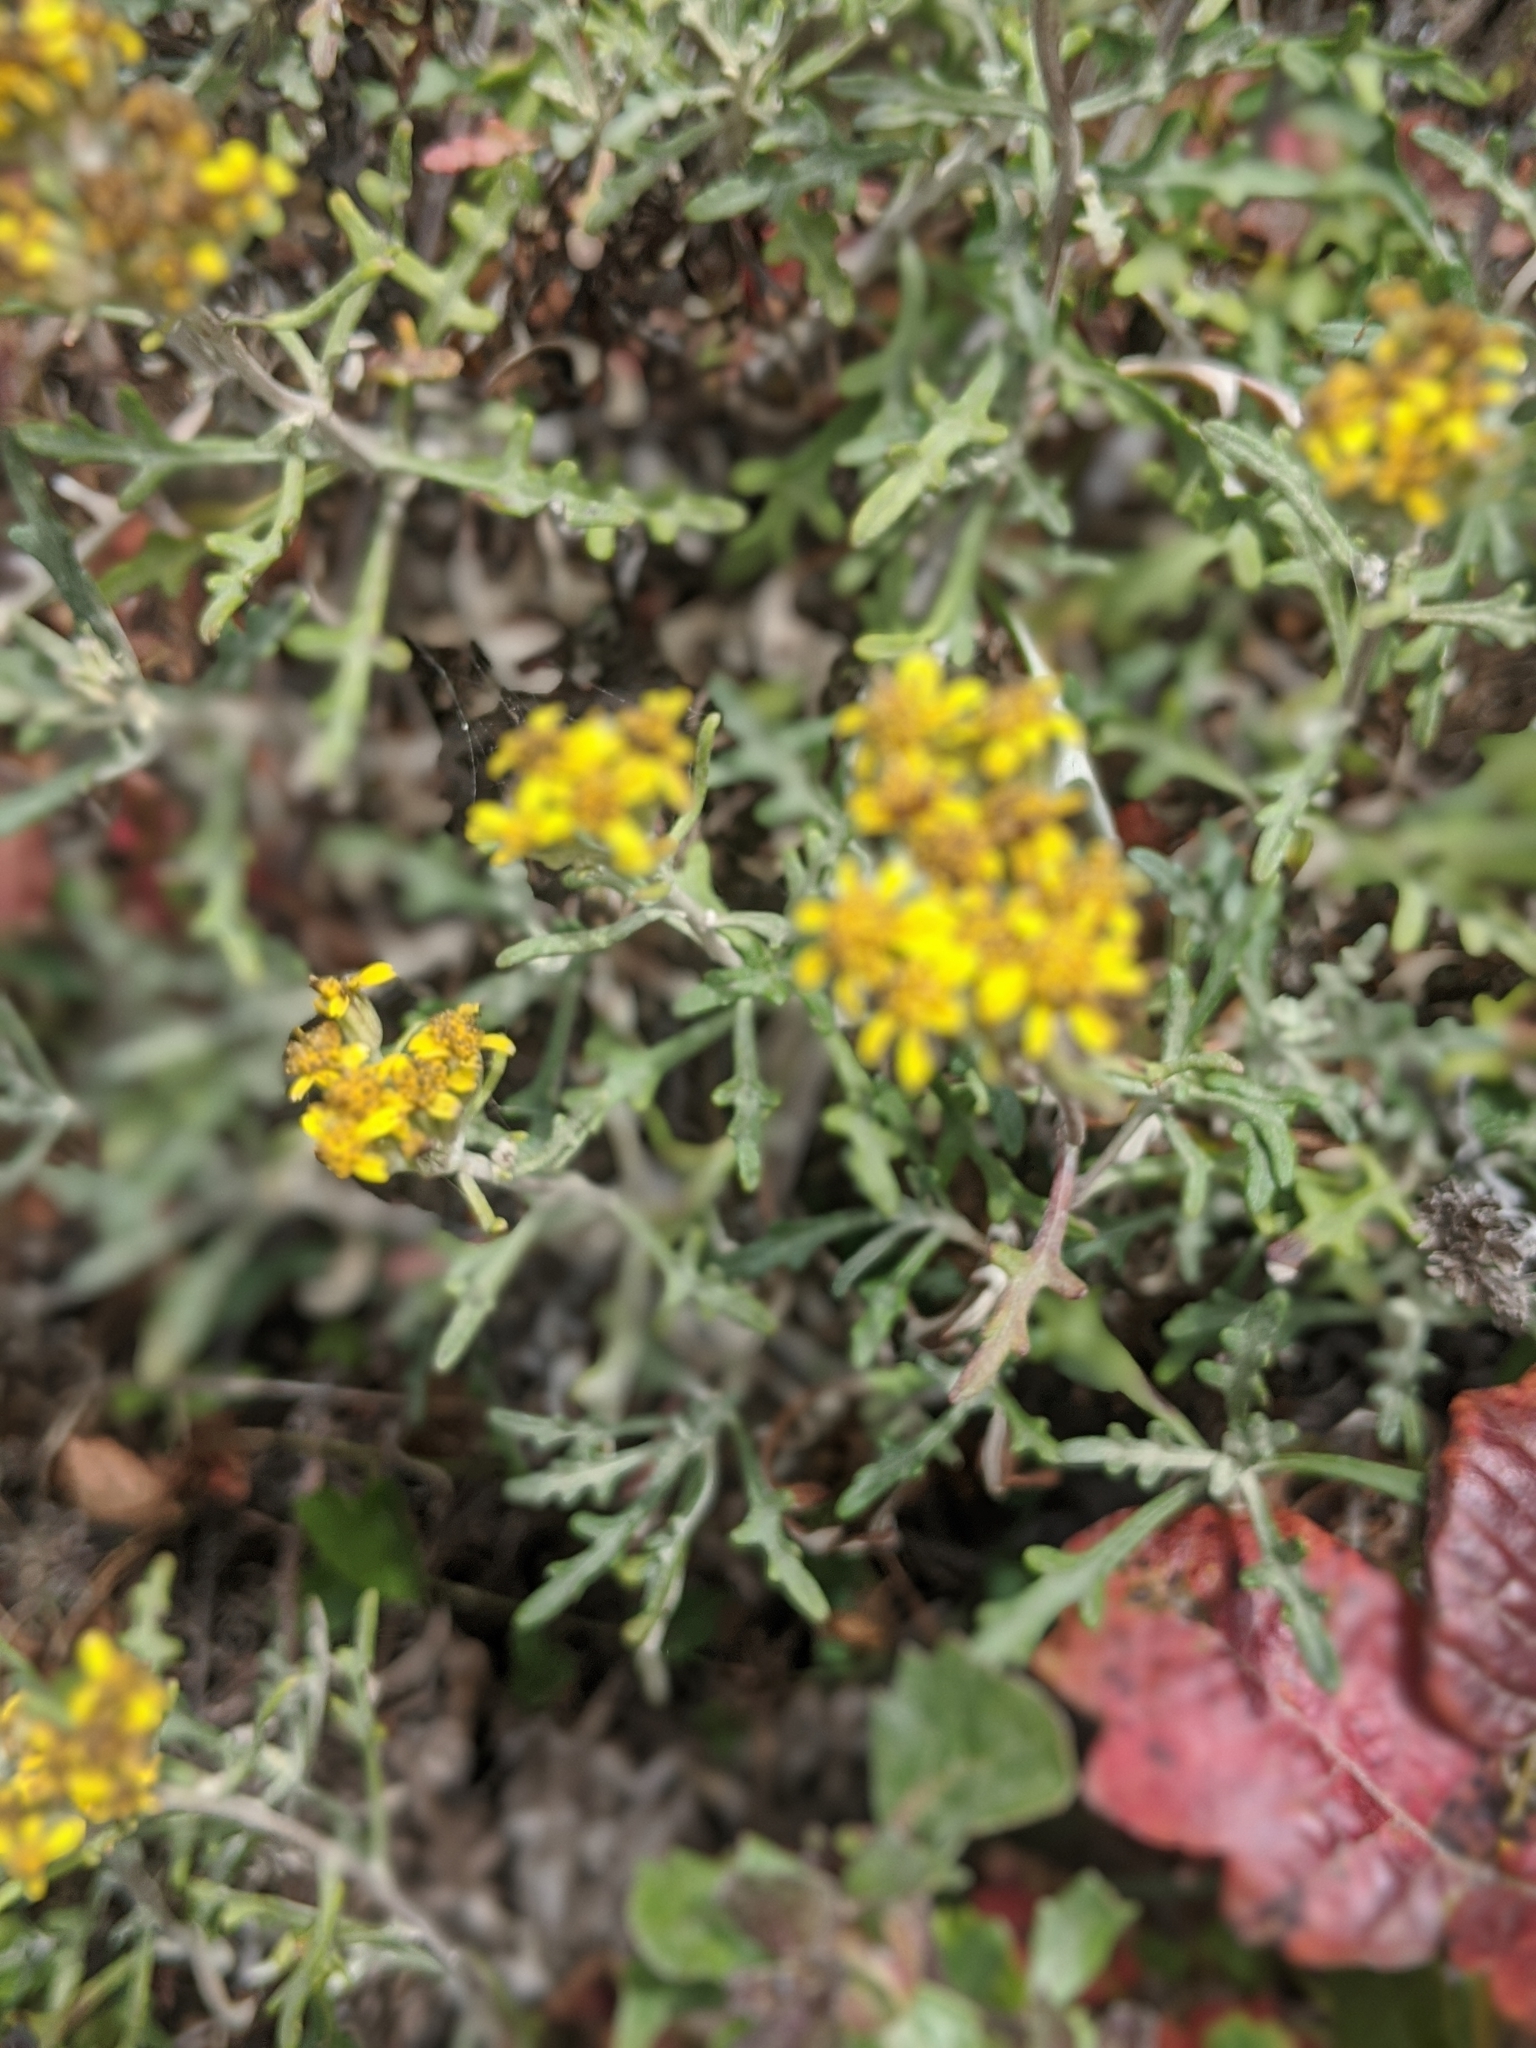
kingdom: Plantae
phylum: Tracheophyta
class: Magnoliopsida
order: Asterales
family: Asteraceae
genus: Eriophyllum
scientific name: Eriophyllum staechadifolium
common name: Lizardtail
